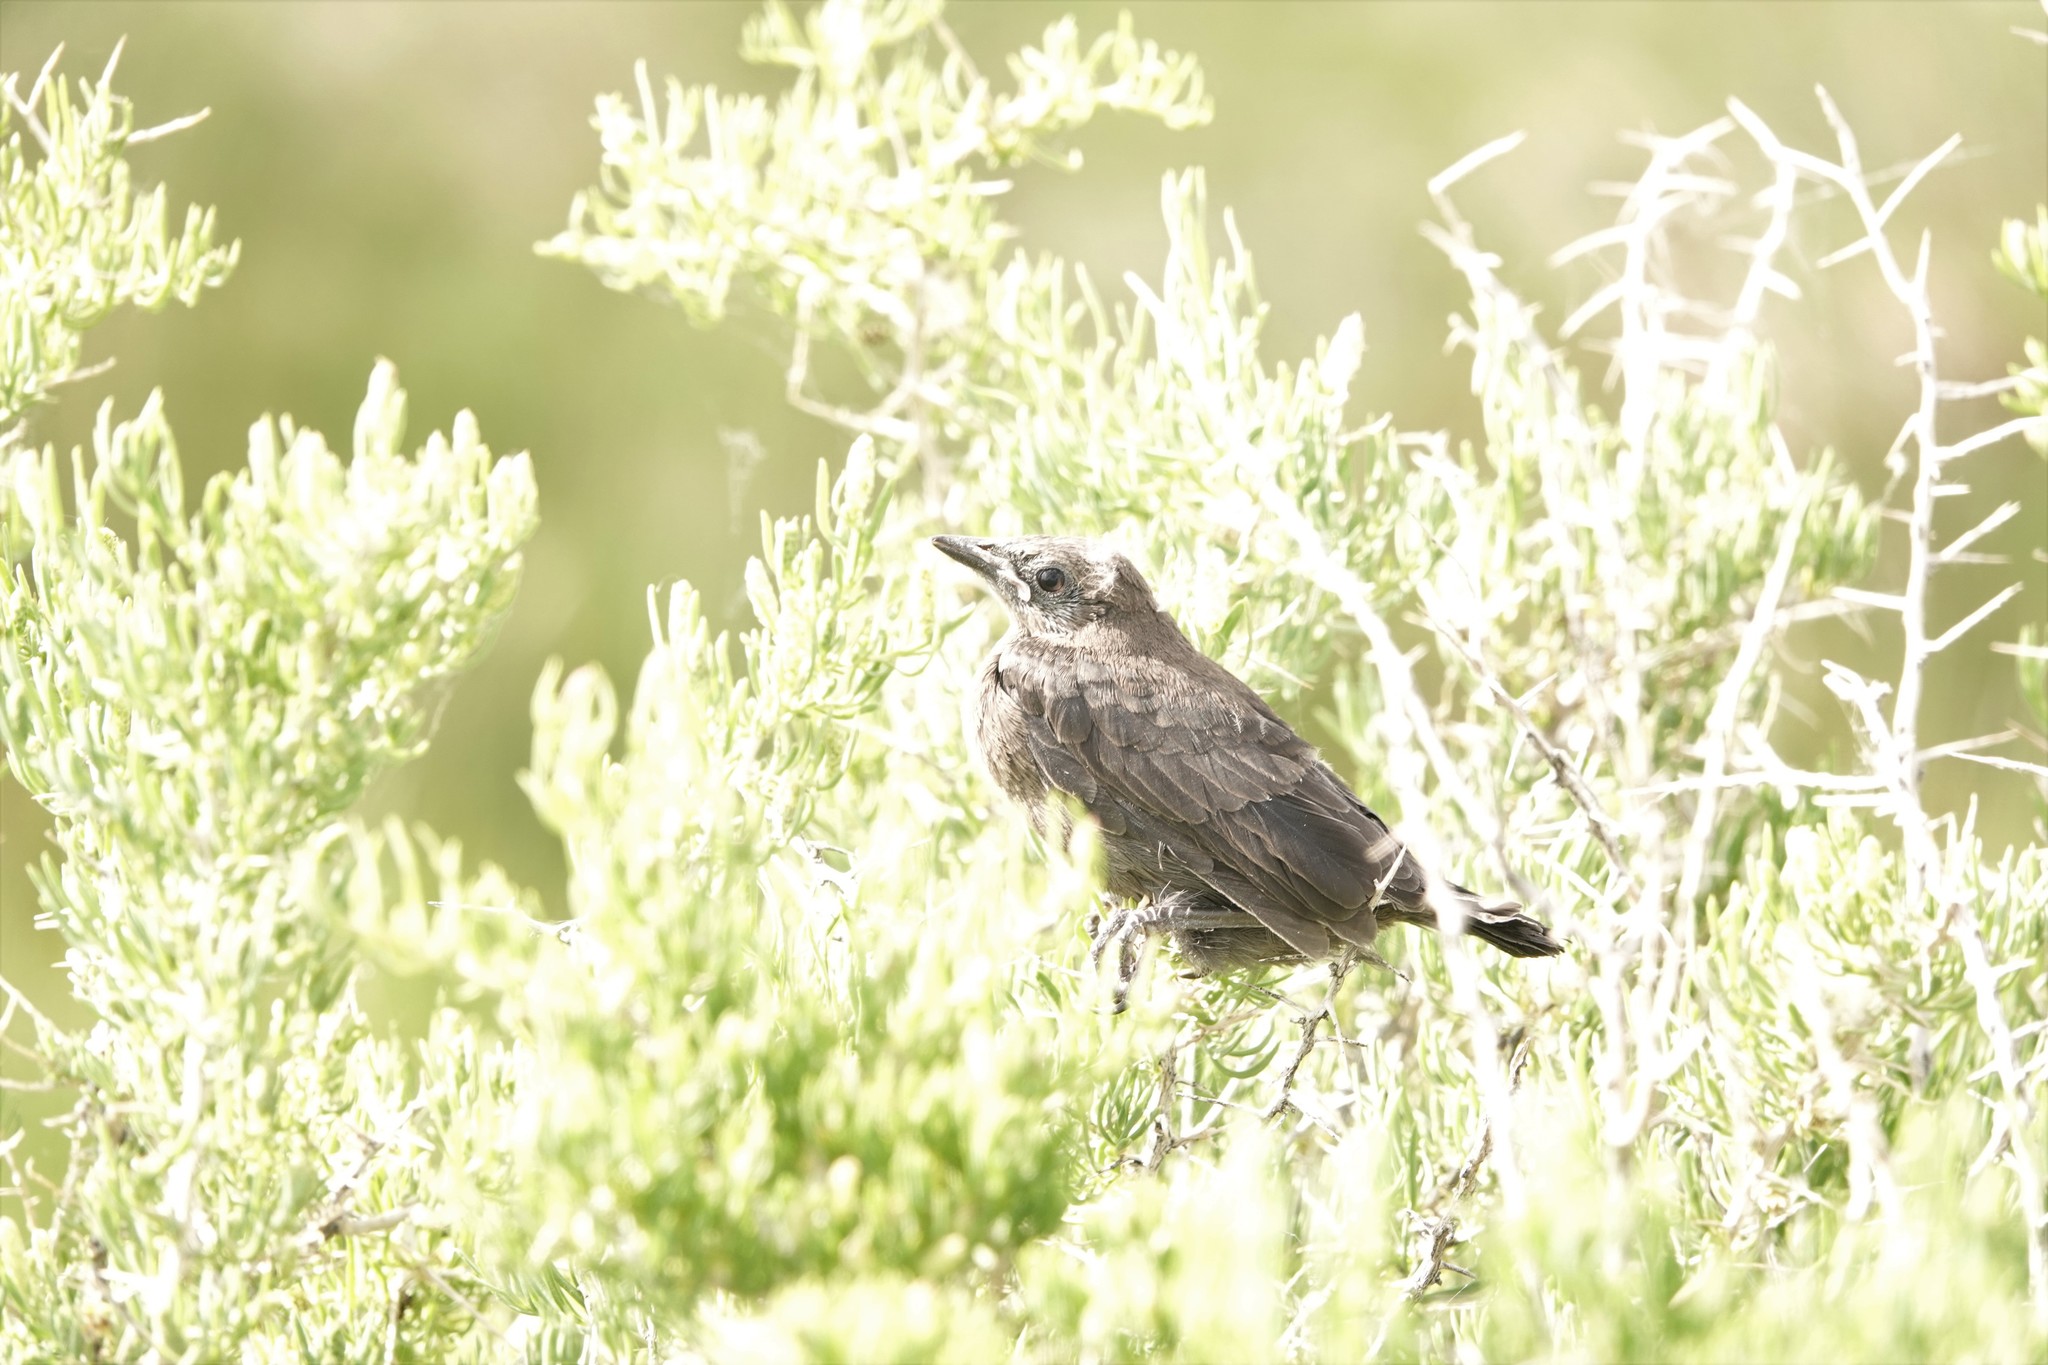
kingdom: Animalia
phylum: Chordata
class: Aves
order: Passeriformes
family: Icteridae
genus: Euphagus
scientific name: Euphagus cyanocephalus
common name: Brewer's blackbird
